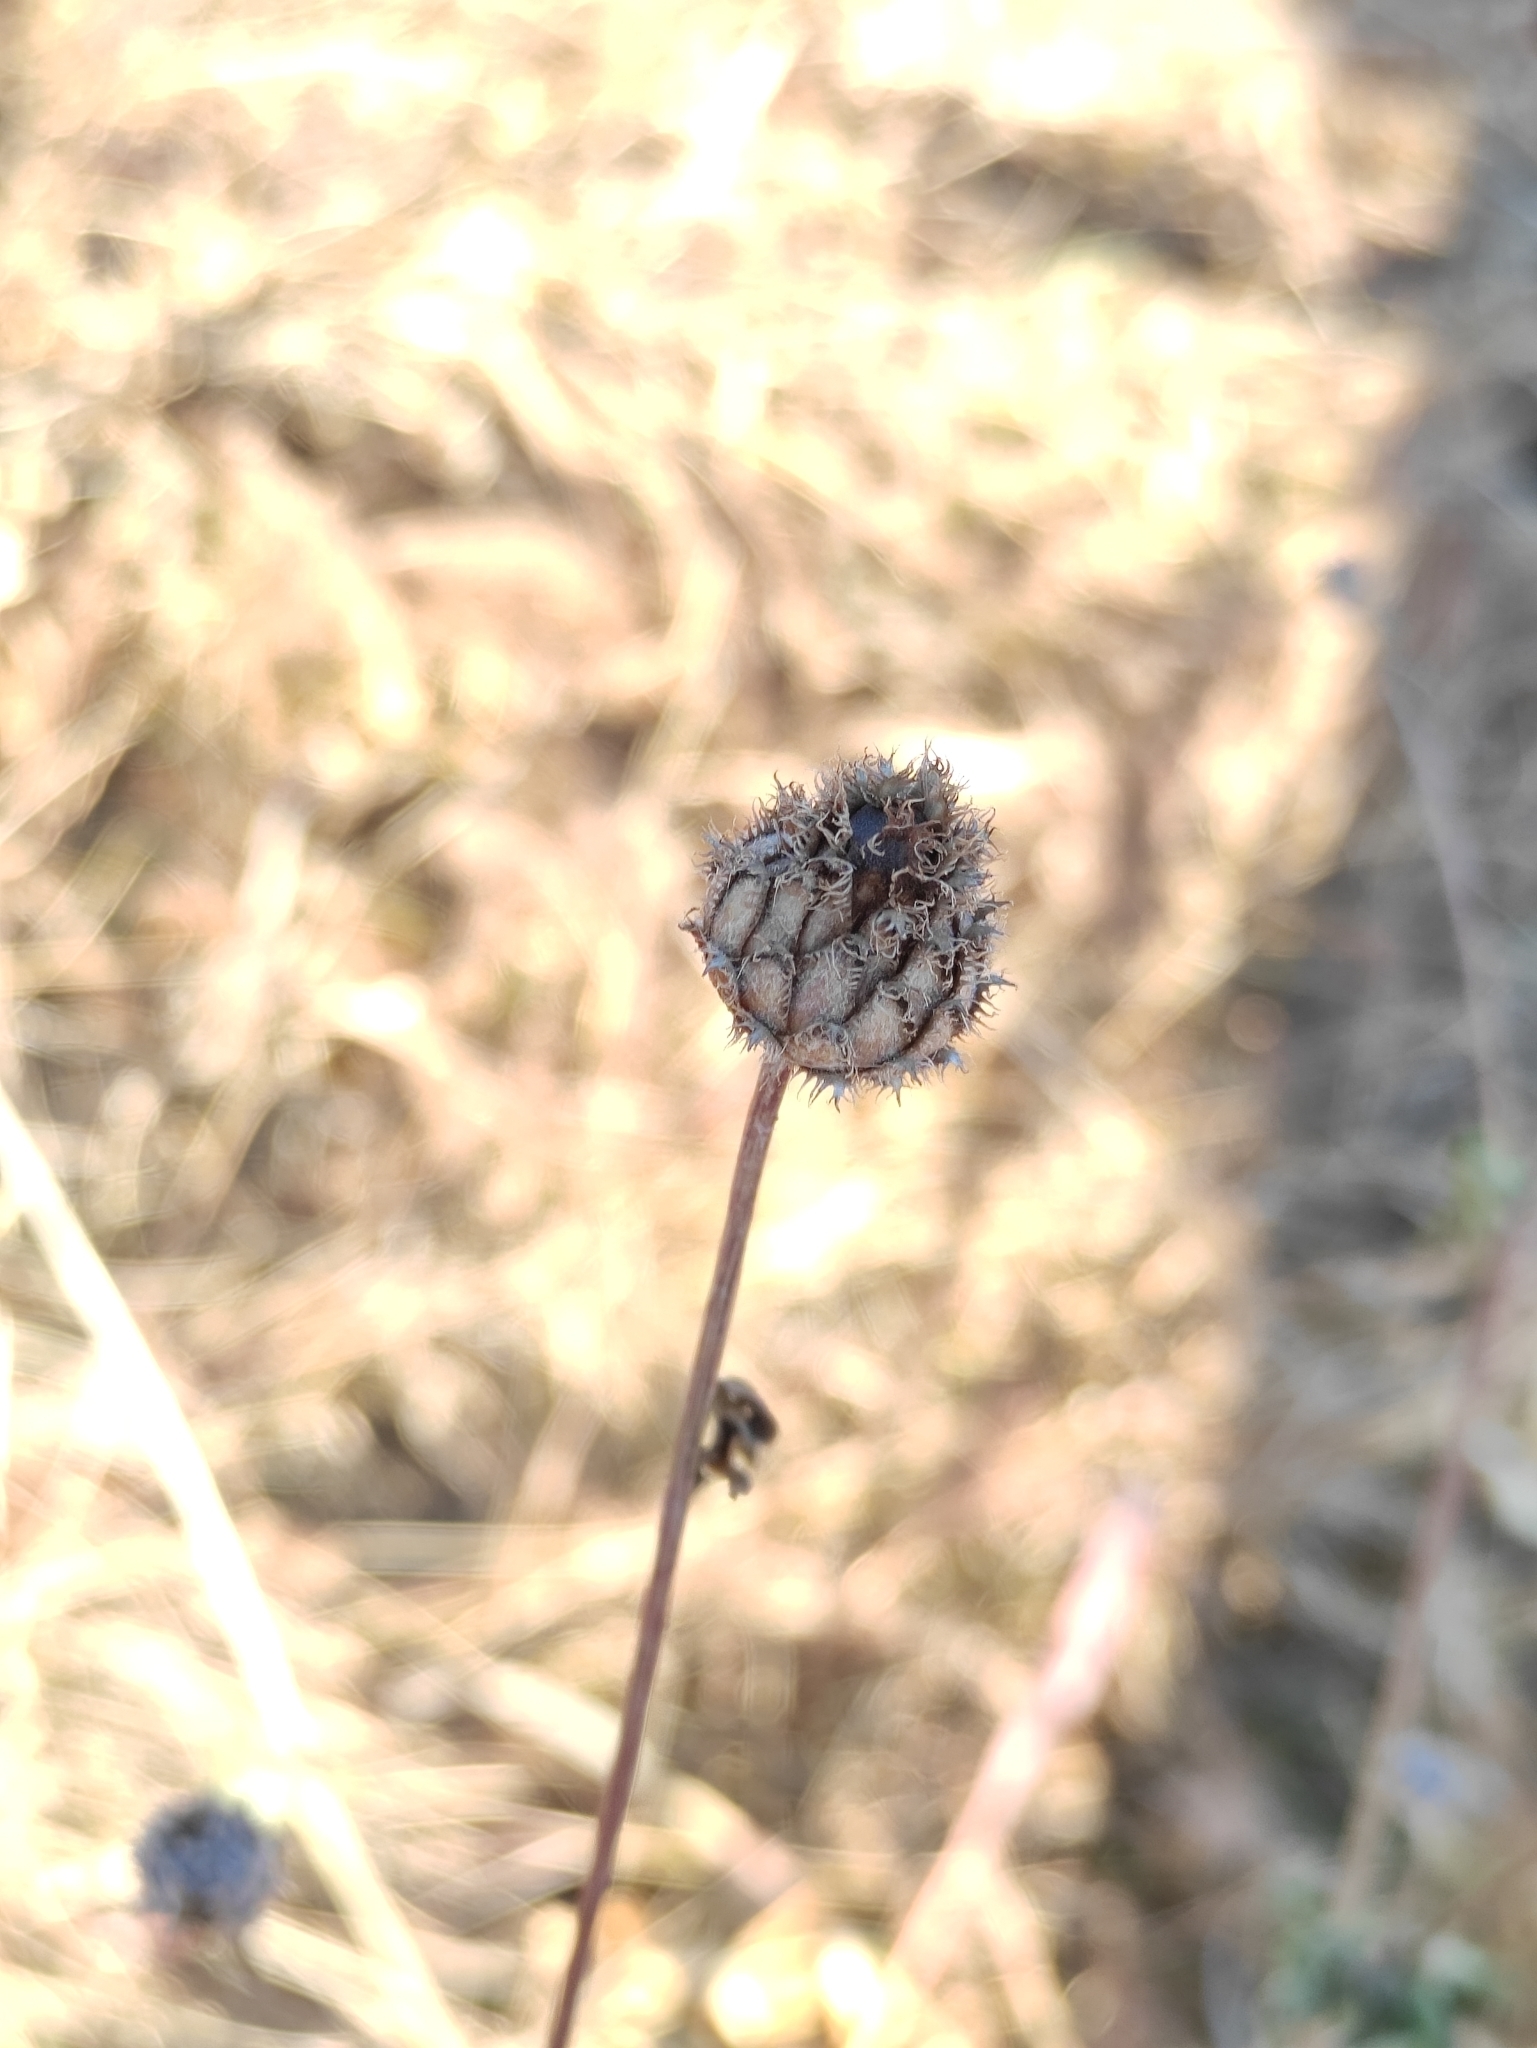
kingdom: Plantae
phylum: Tracheophyta
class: Magnoliopsida
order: Asterales
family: Asteraceae
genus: Centaurea
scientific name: Centaurea scabiosa
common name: Greater knapweed
